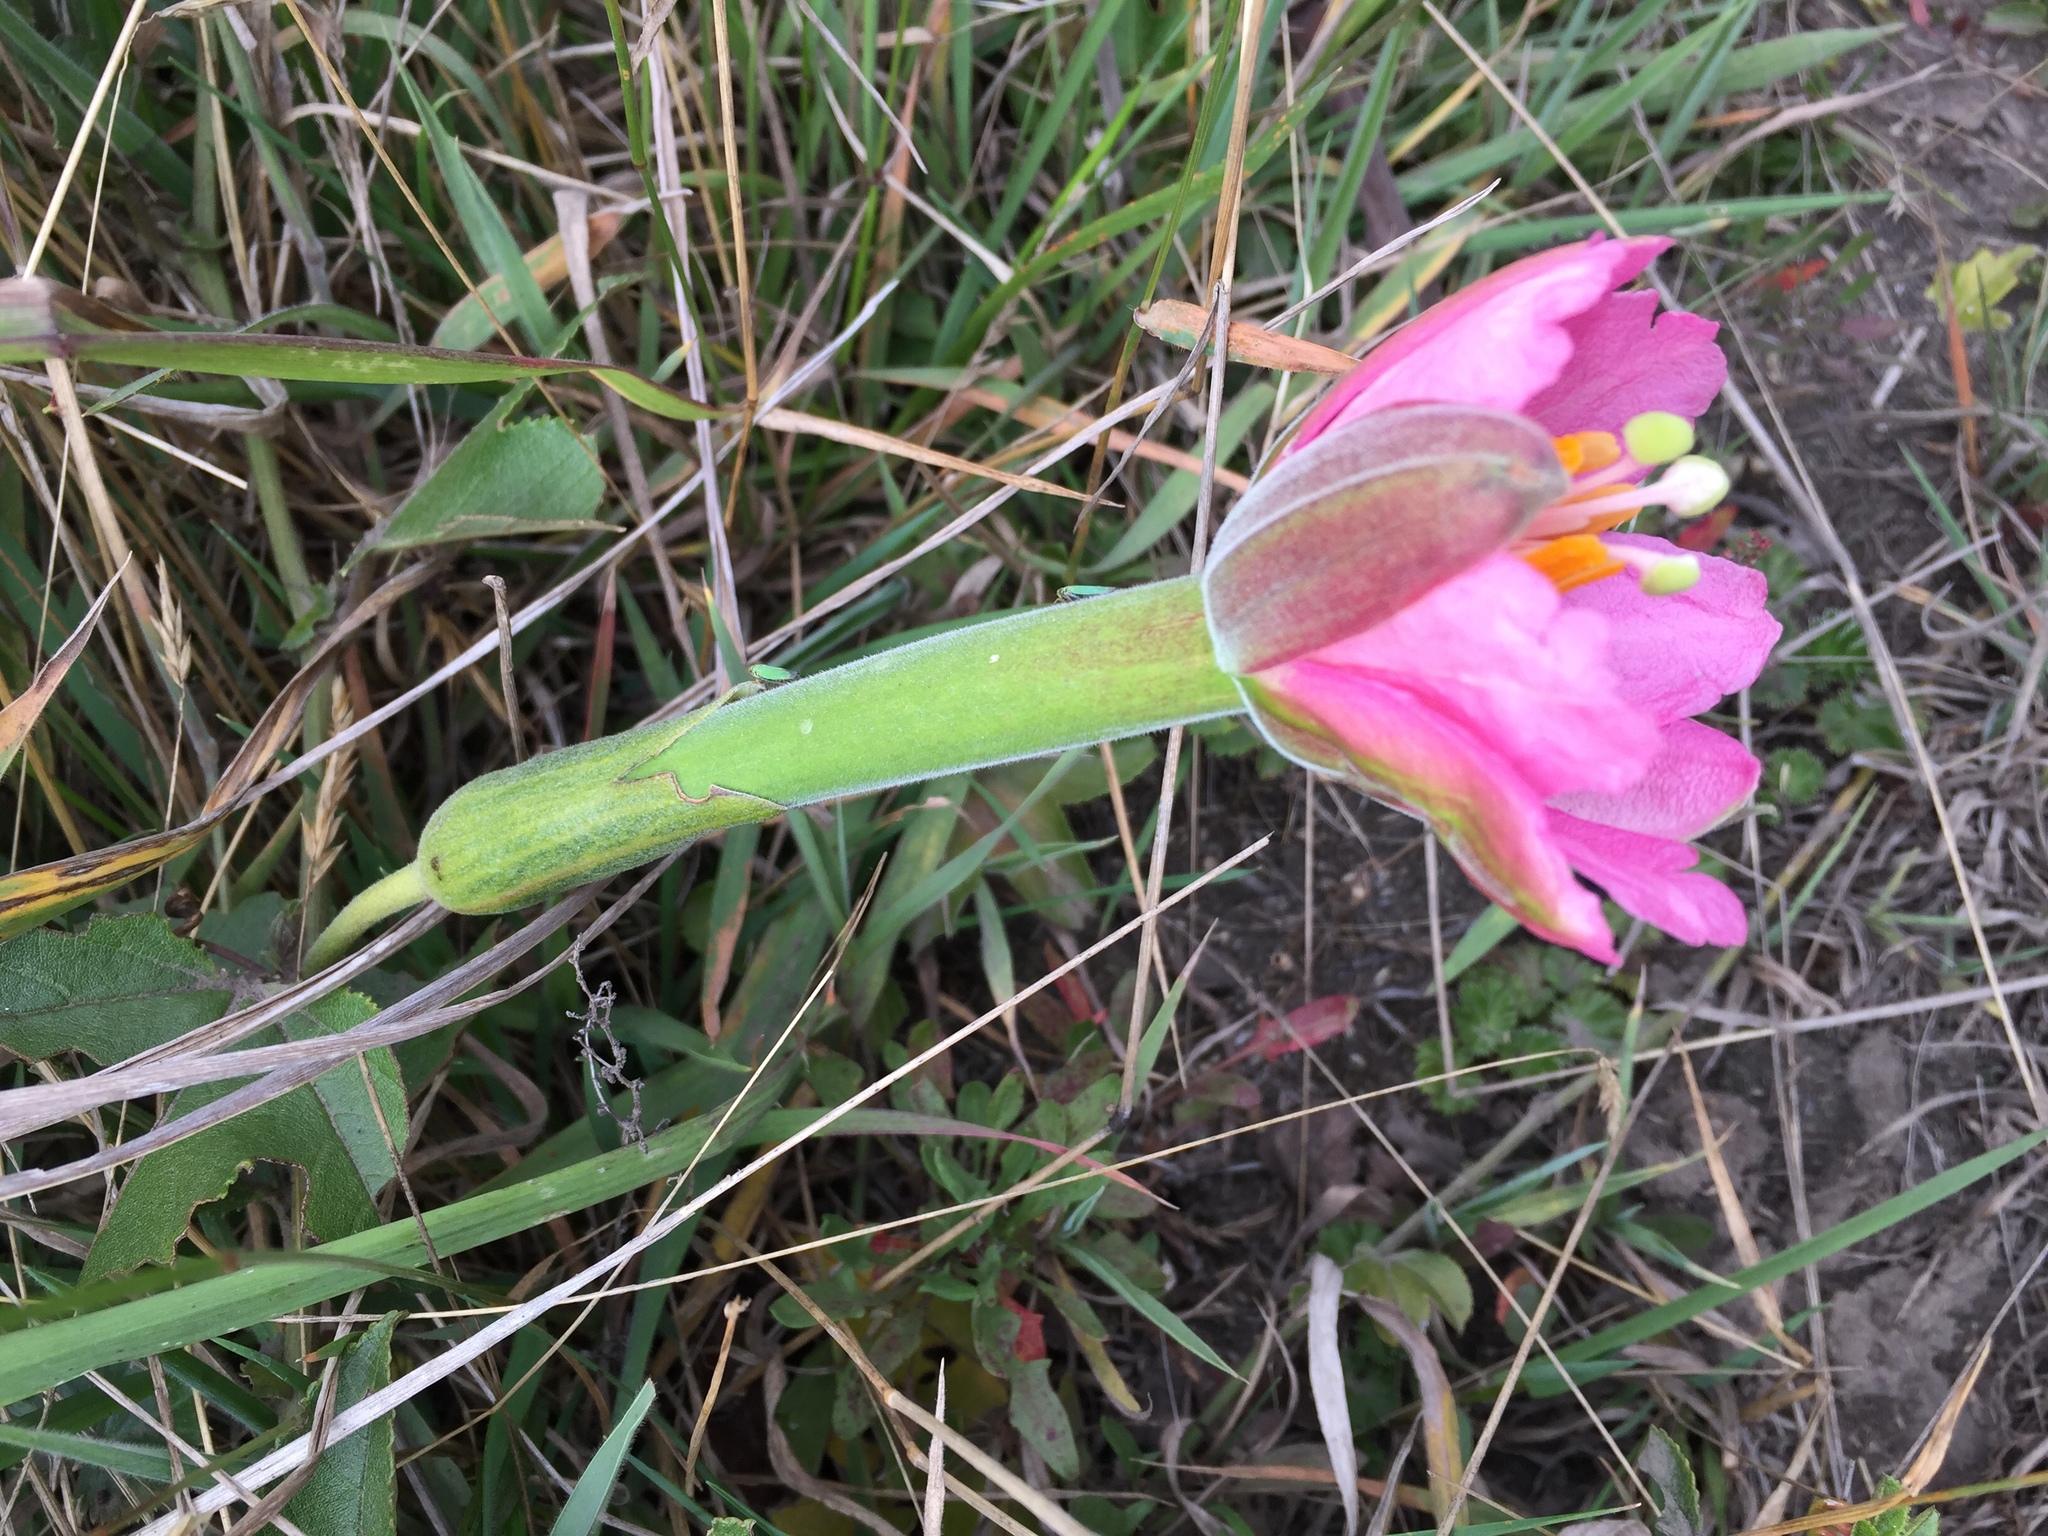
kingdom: Plantae
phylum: Tracheophyta
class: Magnoliopsida
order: Malpighiales
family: Passifloraceae
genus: Passiflora
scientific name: Passiflora mixta
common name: Passion flower
